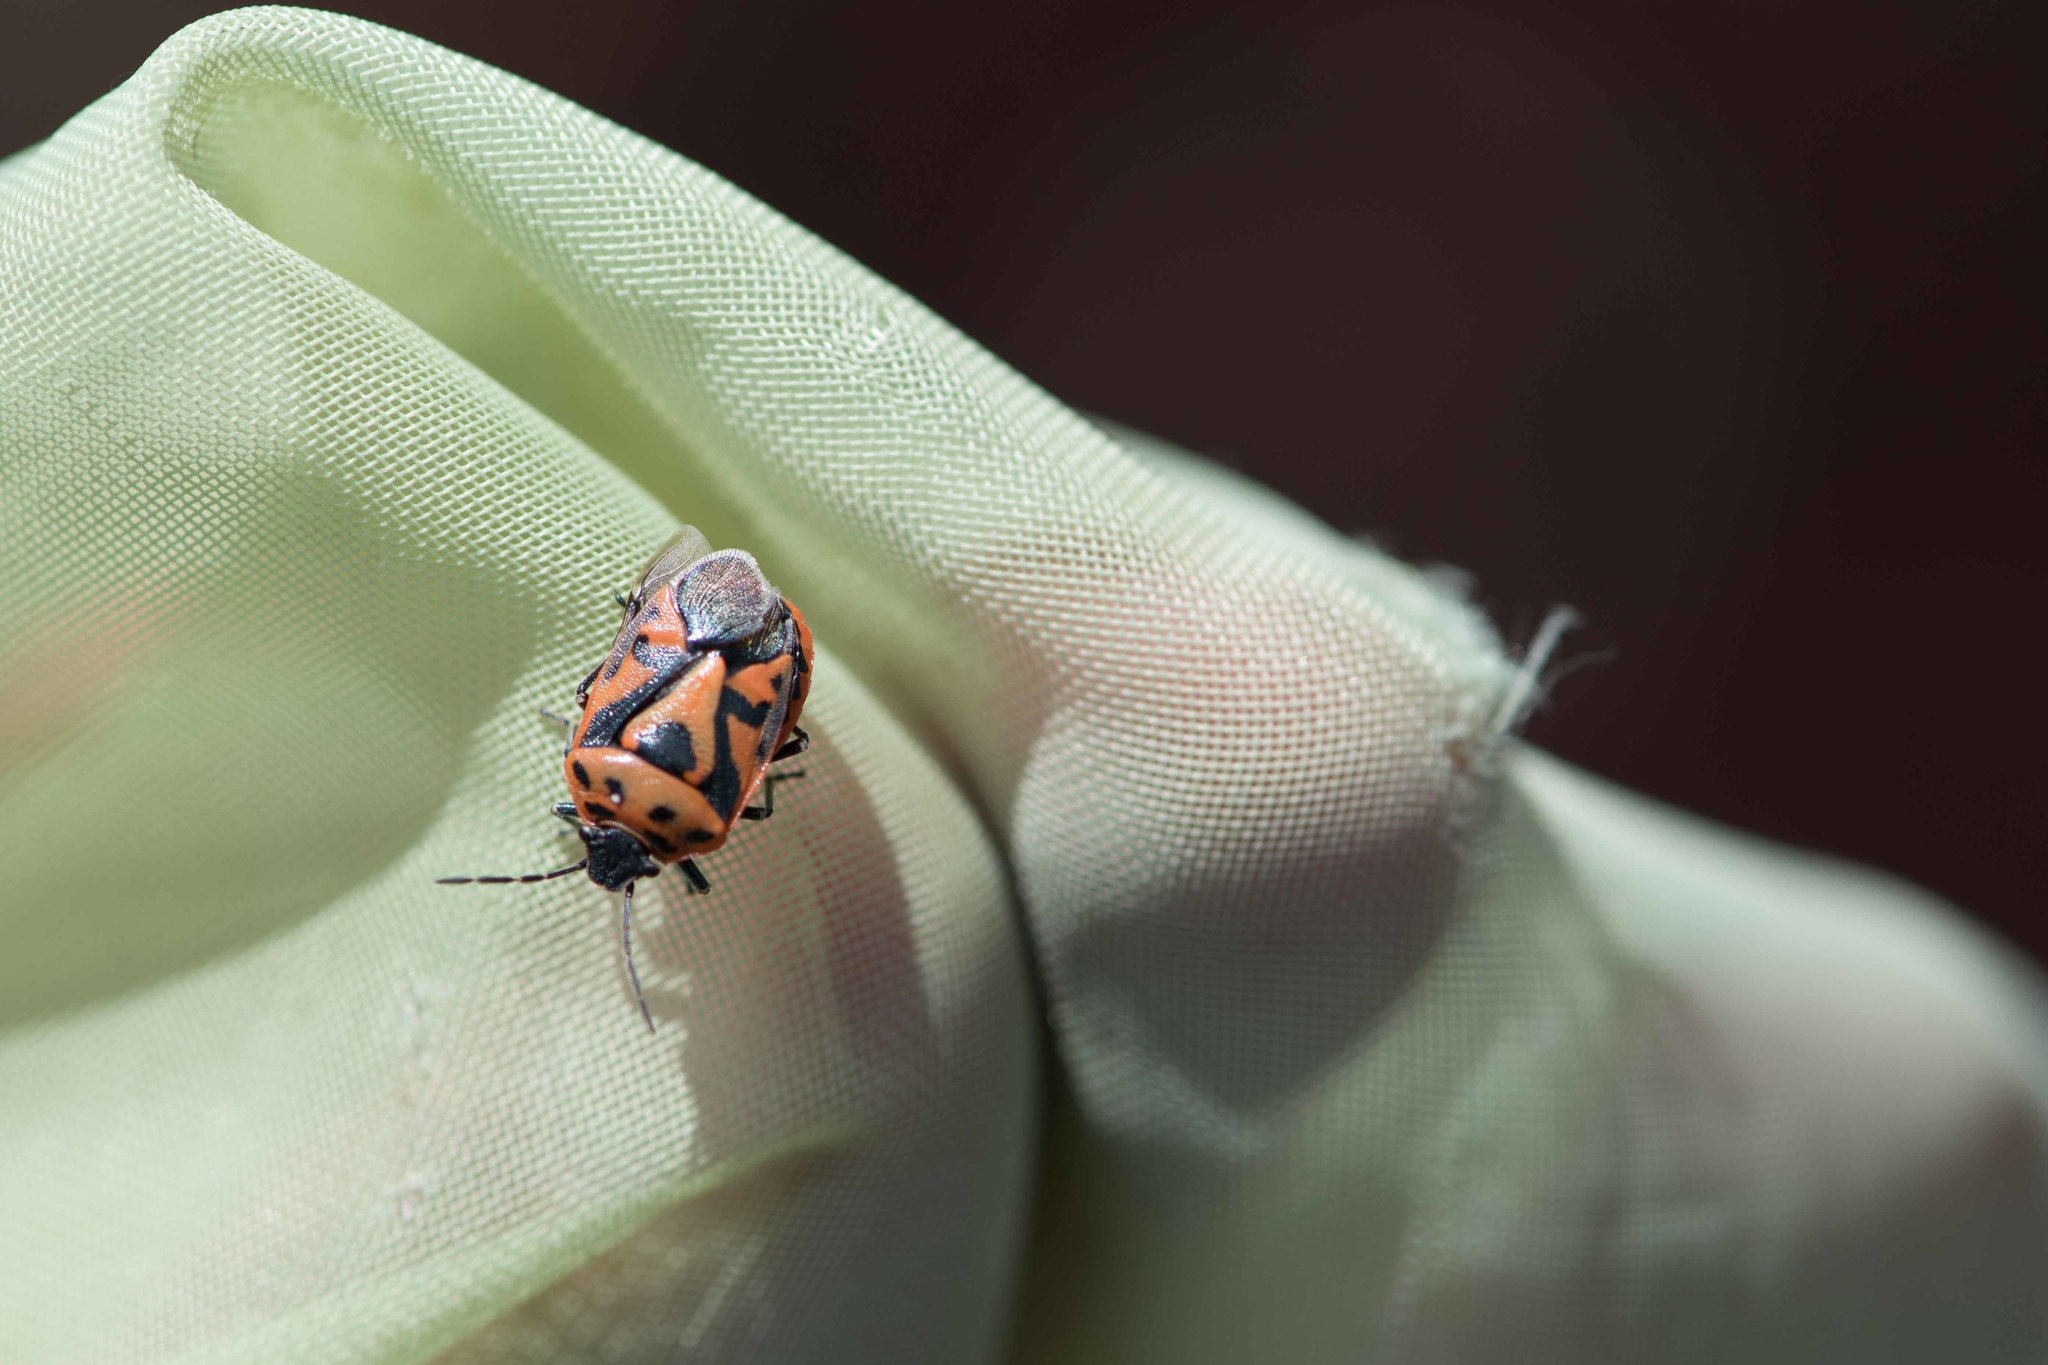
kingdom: Animalia
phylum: Arthropoda
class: Insecta
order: Hemiptera
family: Pentatomidae
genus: Eurydema
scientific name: Eurydema ornata
